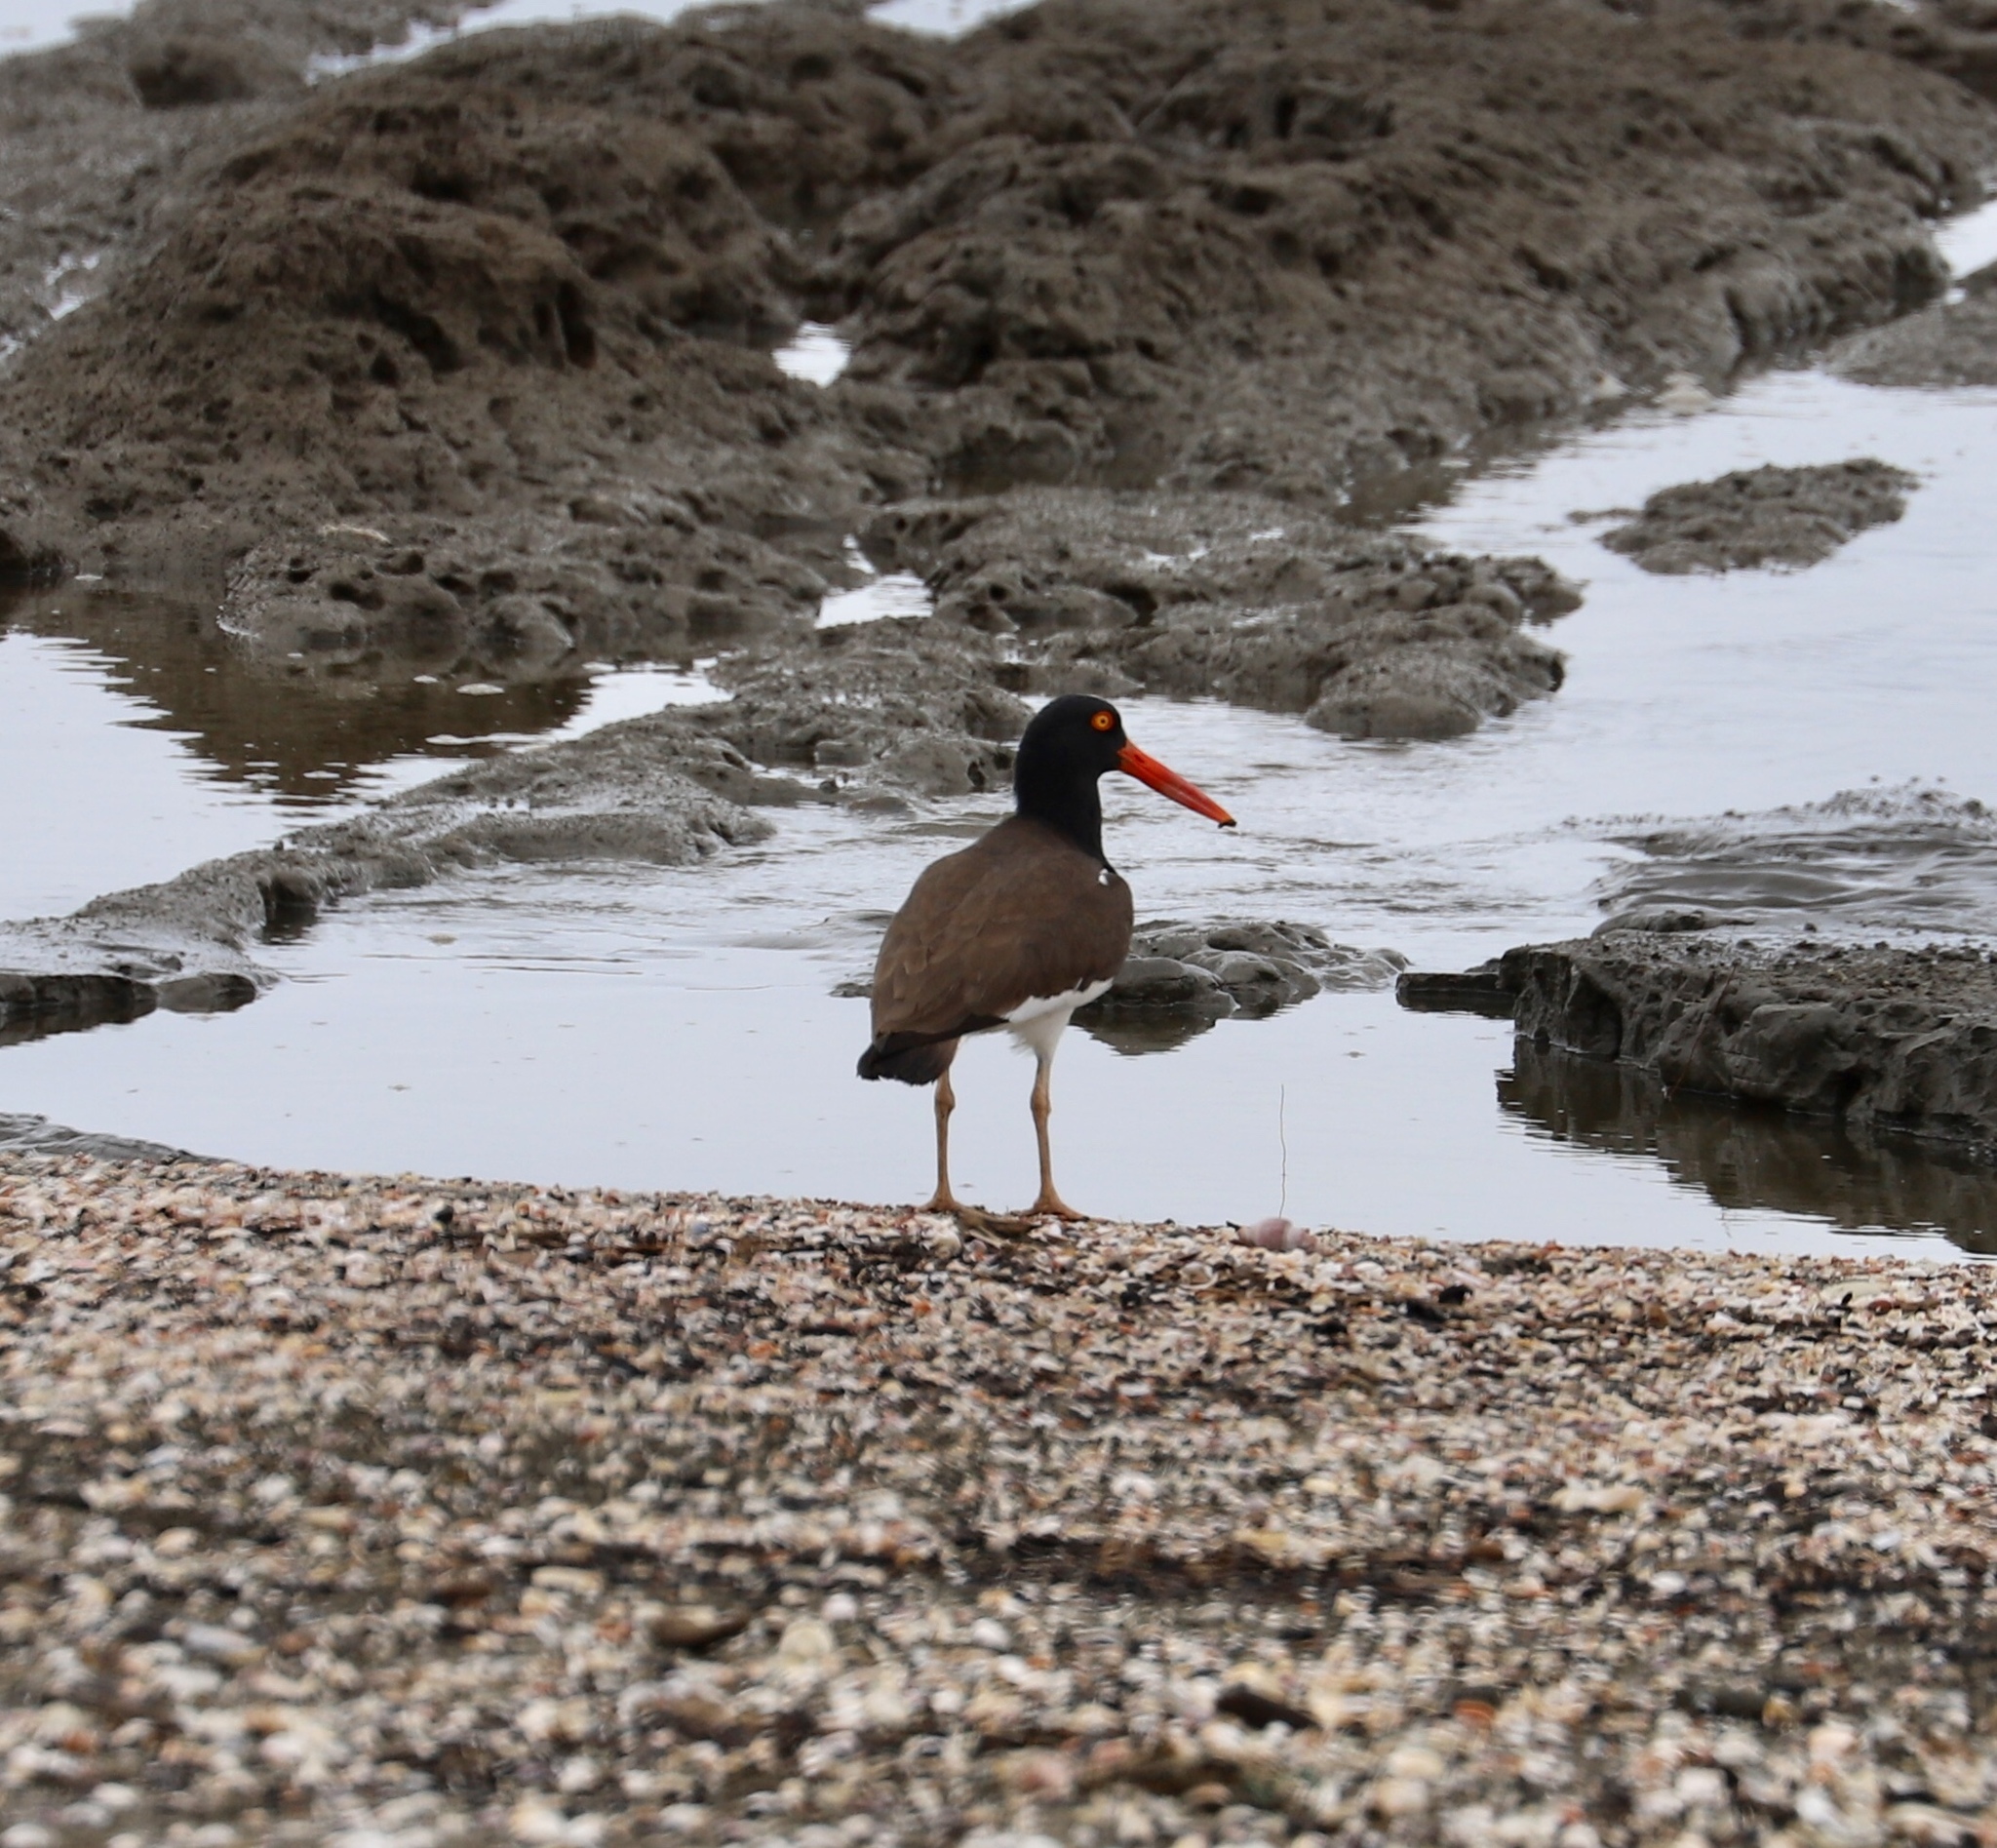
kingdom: Animalia
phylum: Chordata
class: Aves
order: Charadriiformes
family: Haematopodidae
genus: Haematopus
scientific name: Haematopus palliatus
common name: American oystercatcher
